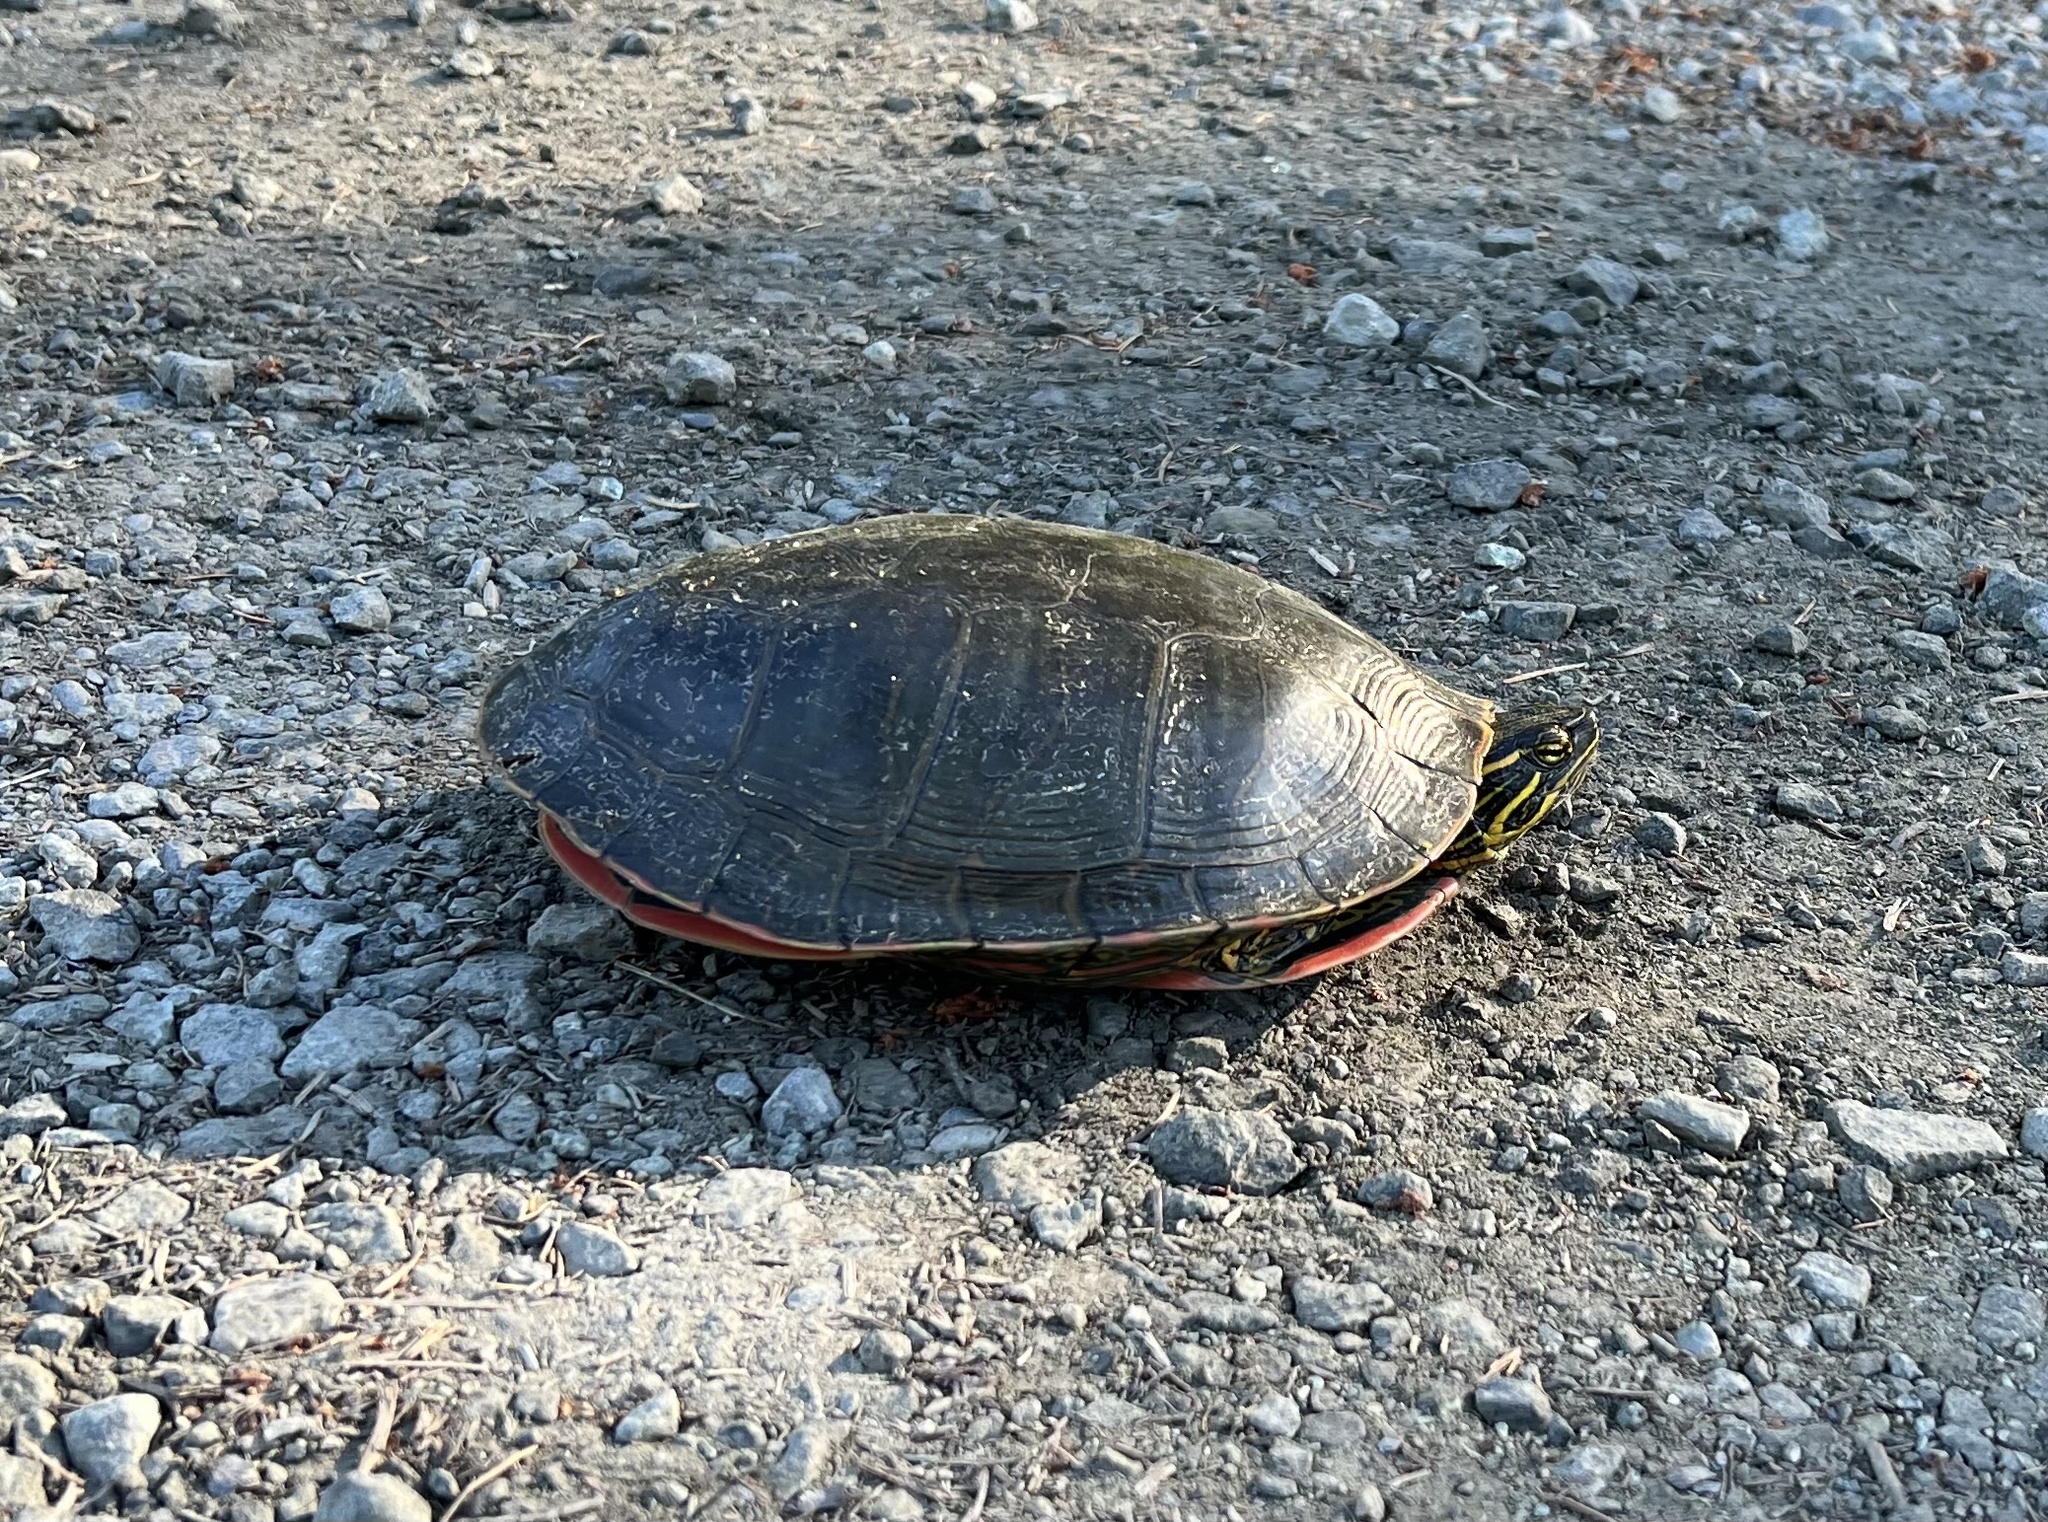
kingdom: Animalia
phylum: Chordata
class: Testudines
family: Emydidae
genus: Chrysemys
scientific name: Chrysemys picta
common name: Painted turtle
